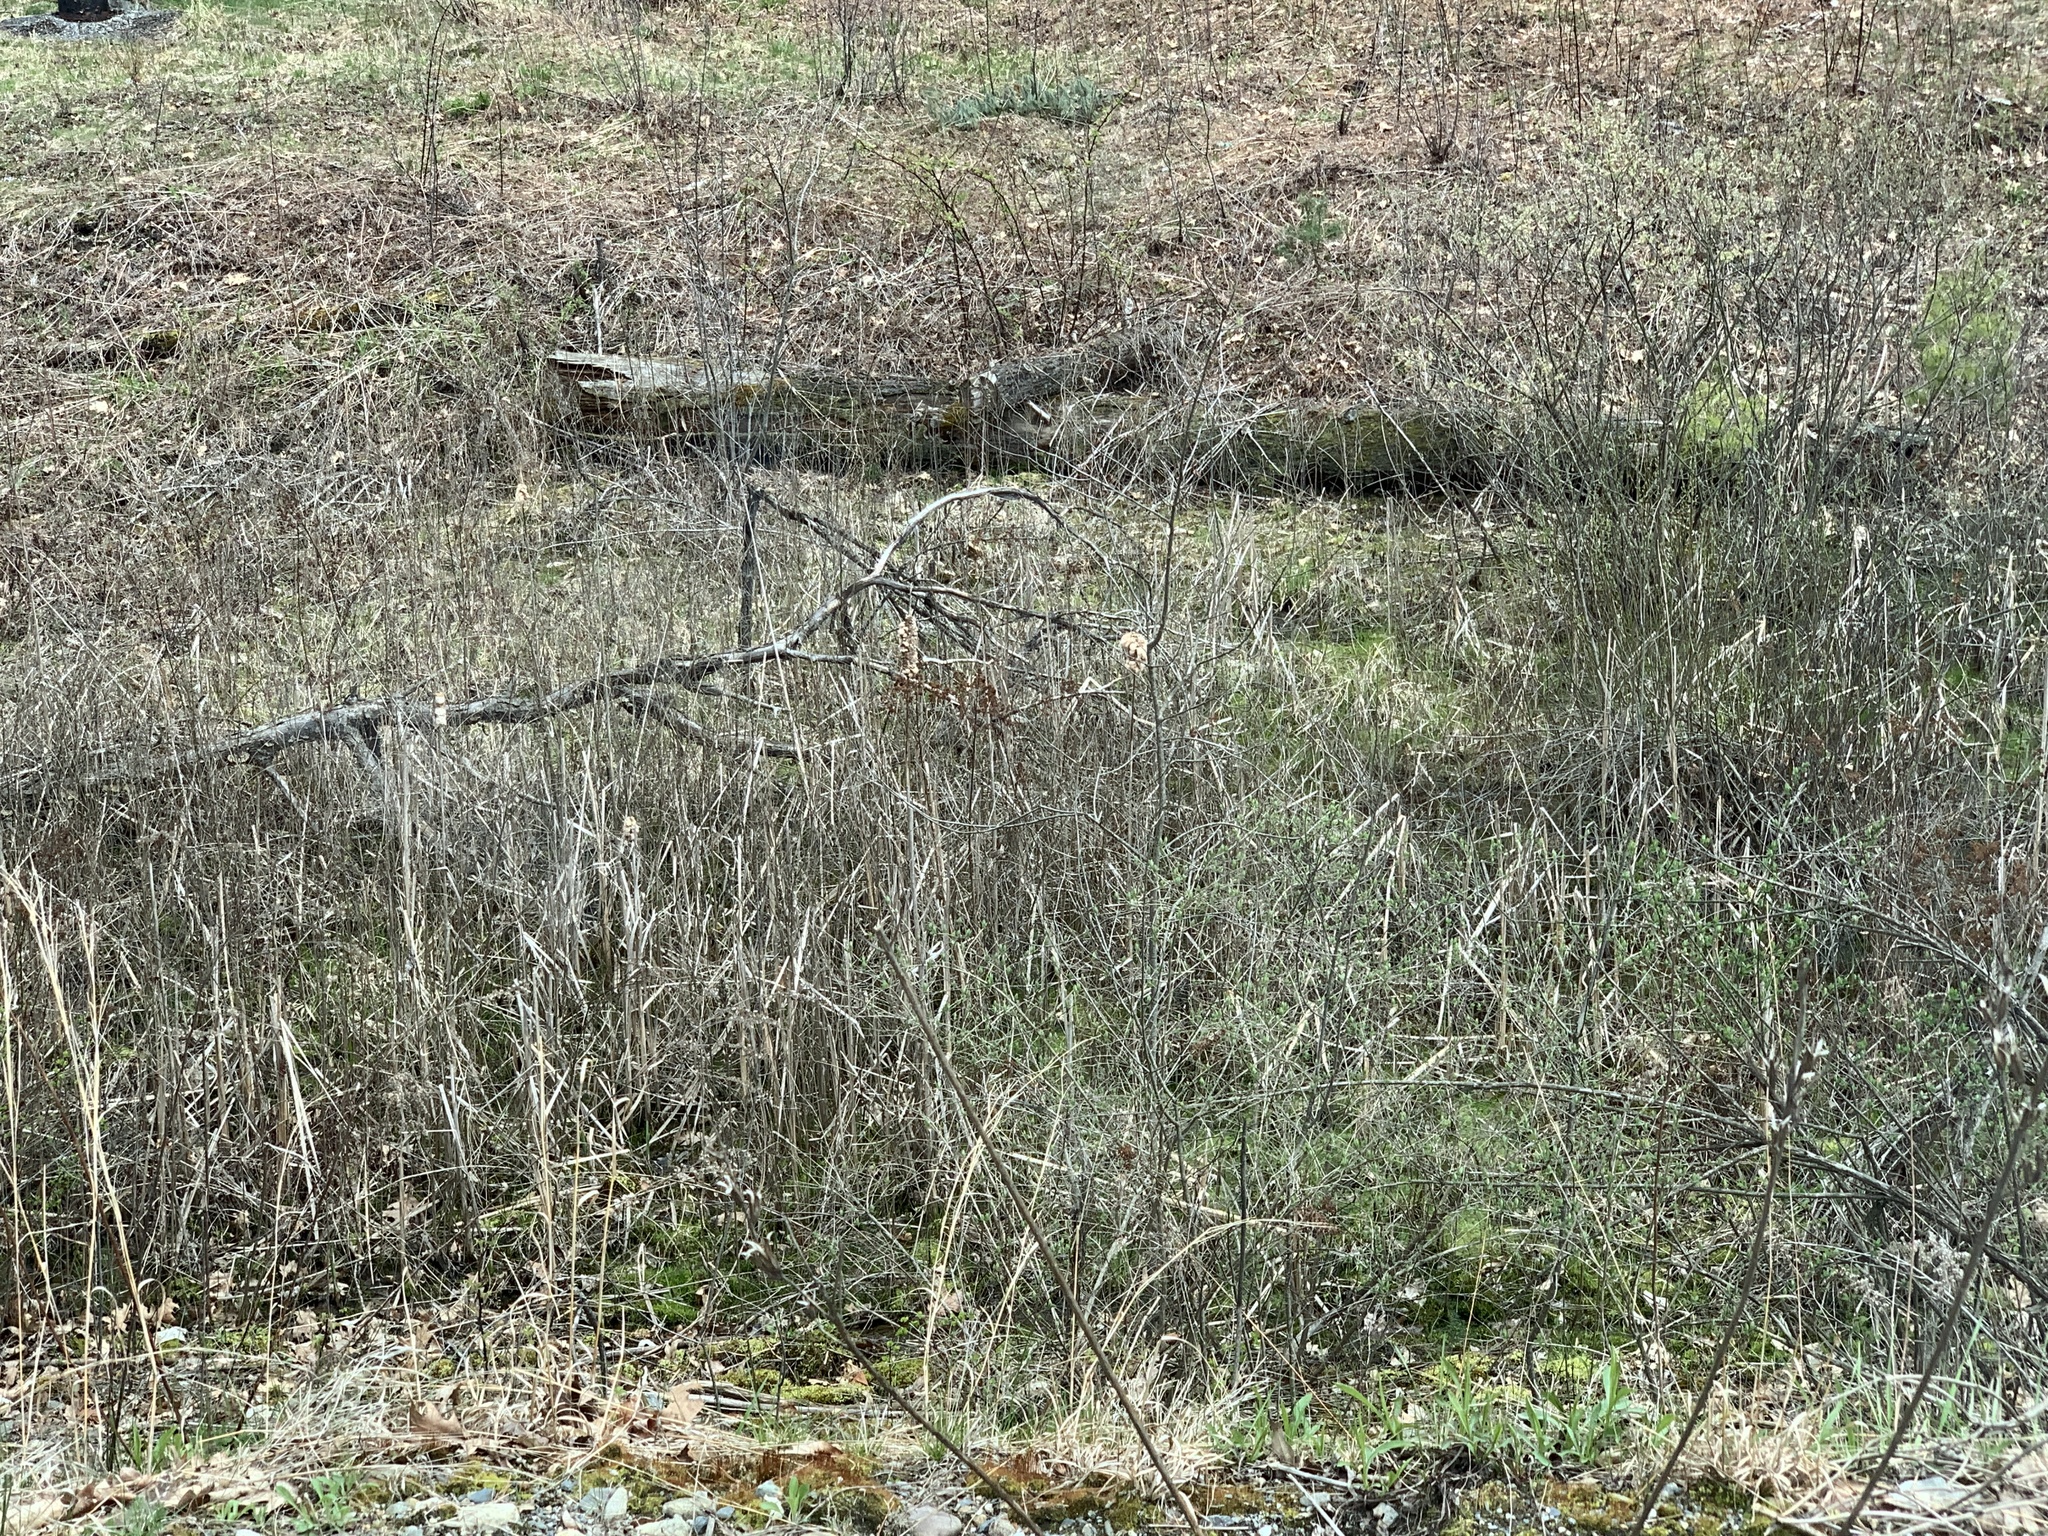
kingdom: Plantae
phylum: Tracheophyta
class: Liliopsida
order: Poales
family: Typhaceae
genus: Typha
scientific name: Typha
